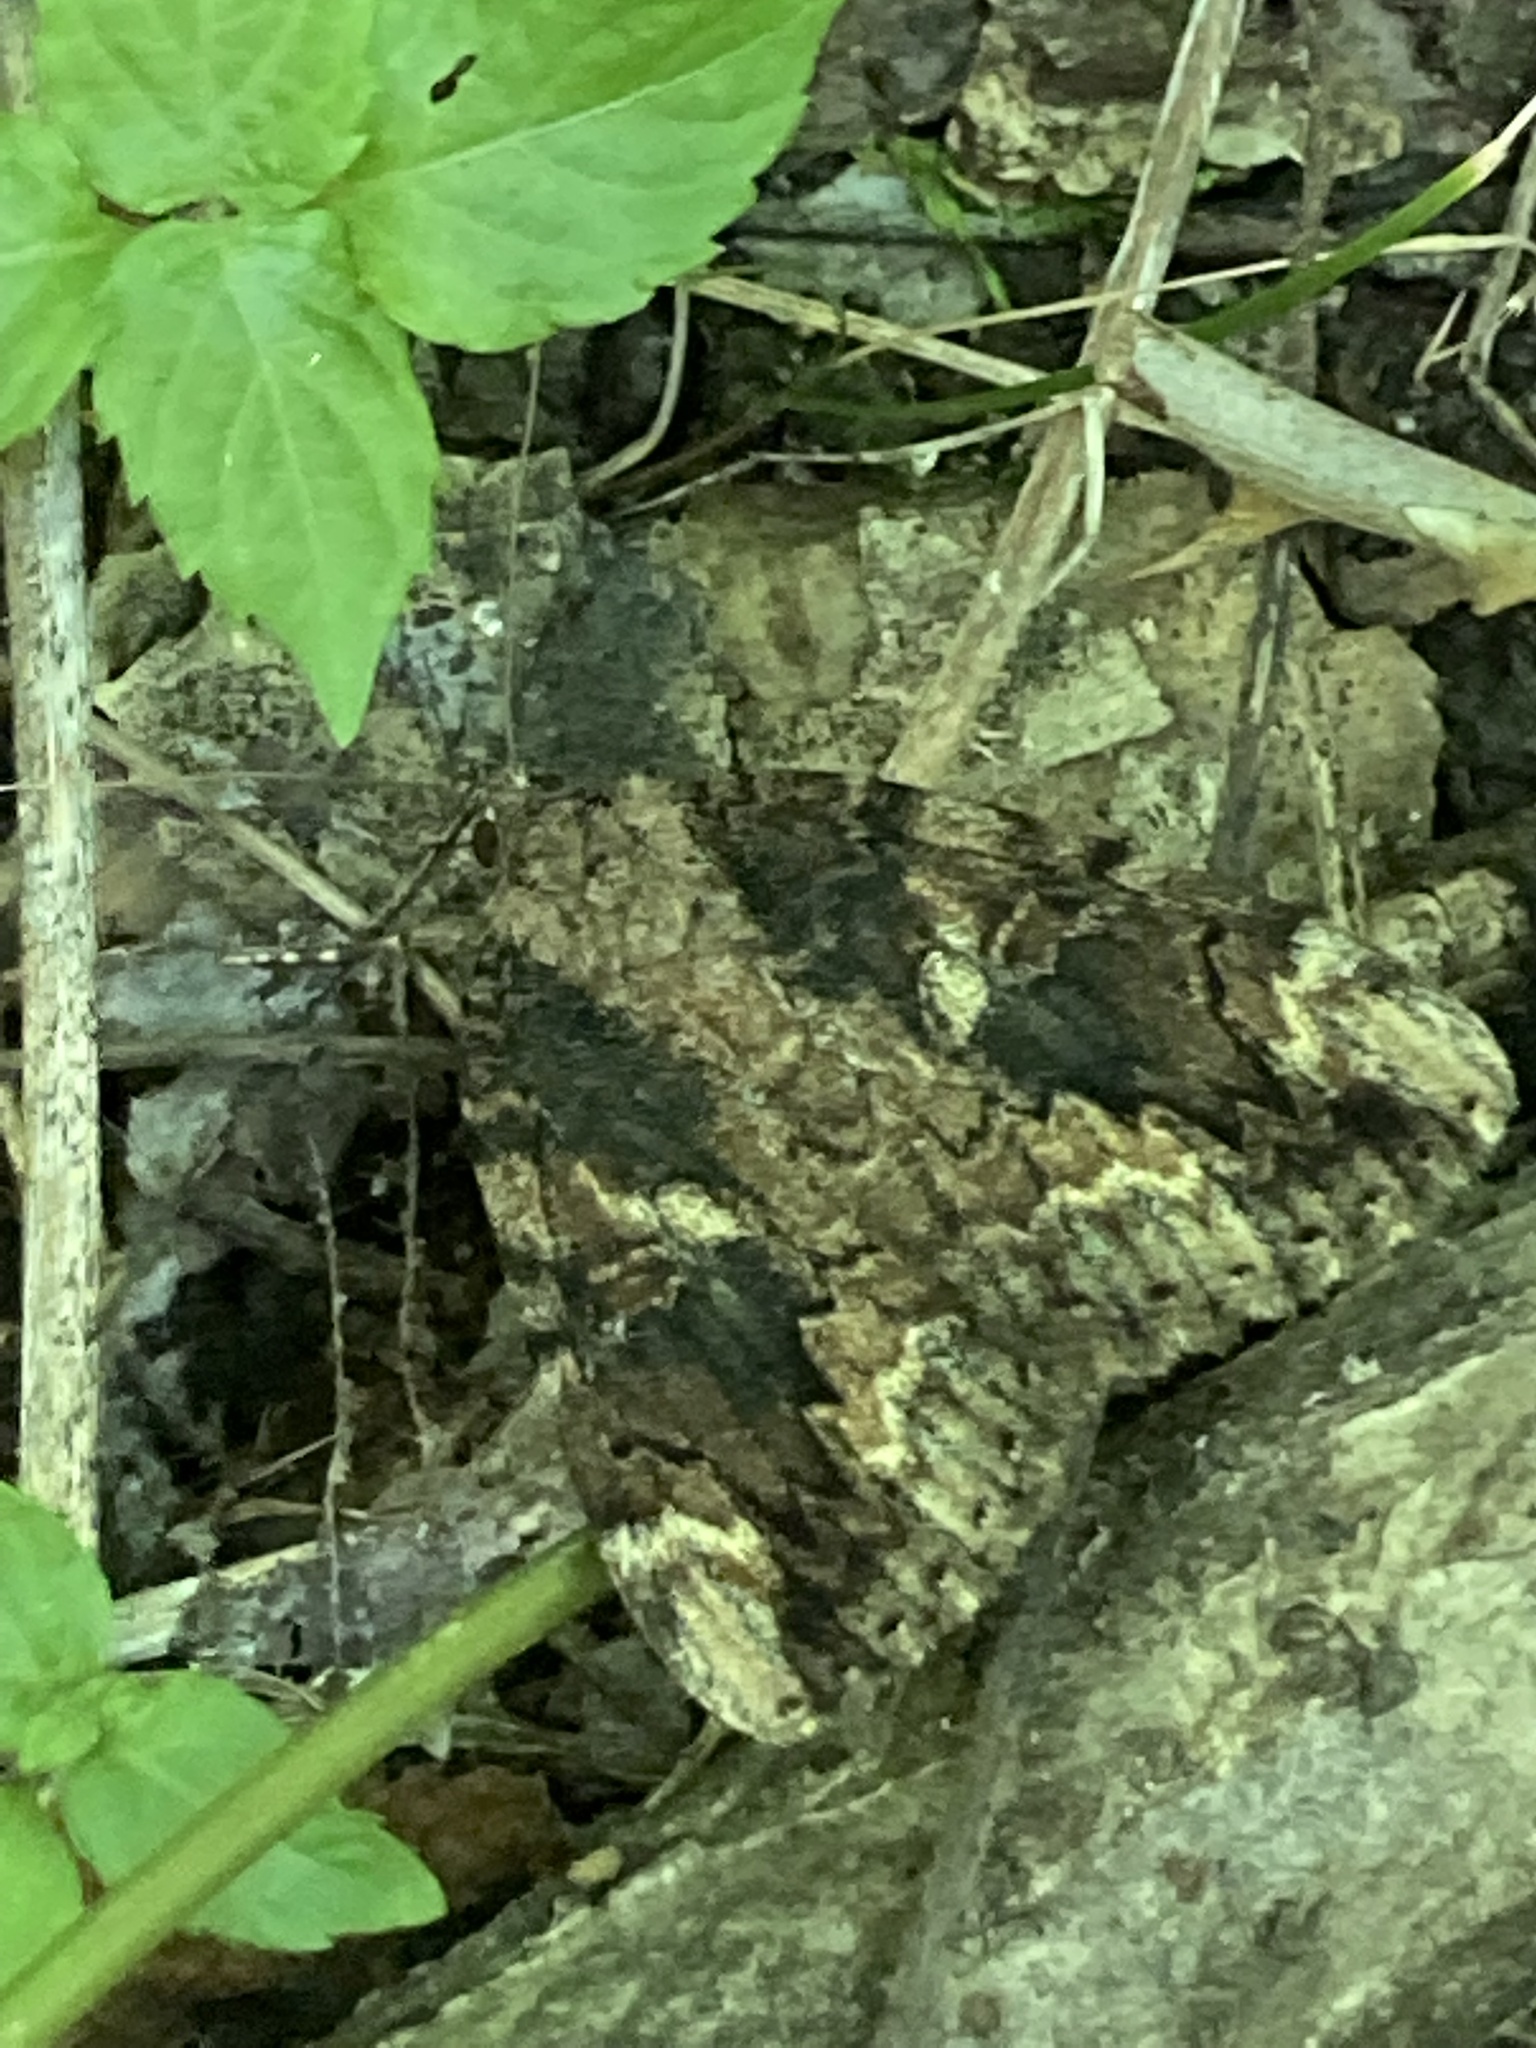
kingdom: Animalia
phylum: Arthropoda
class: Insecta
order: Lepidoptera
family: Erebidae
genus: Catocala
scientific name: Catocala innubens
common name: Betrothed underwing
